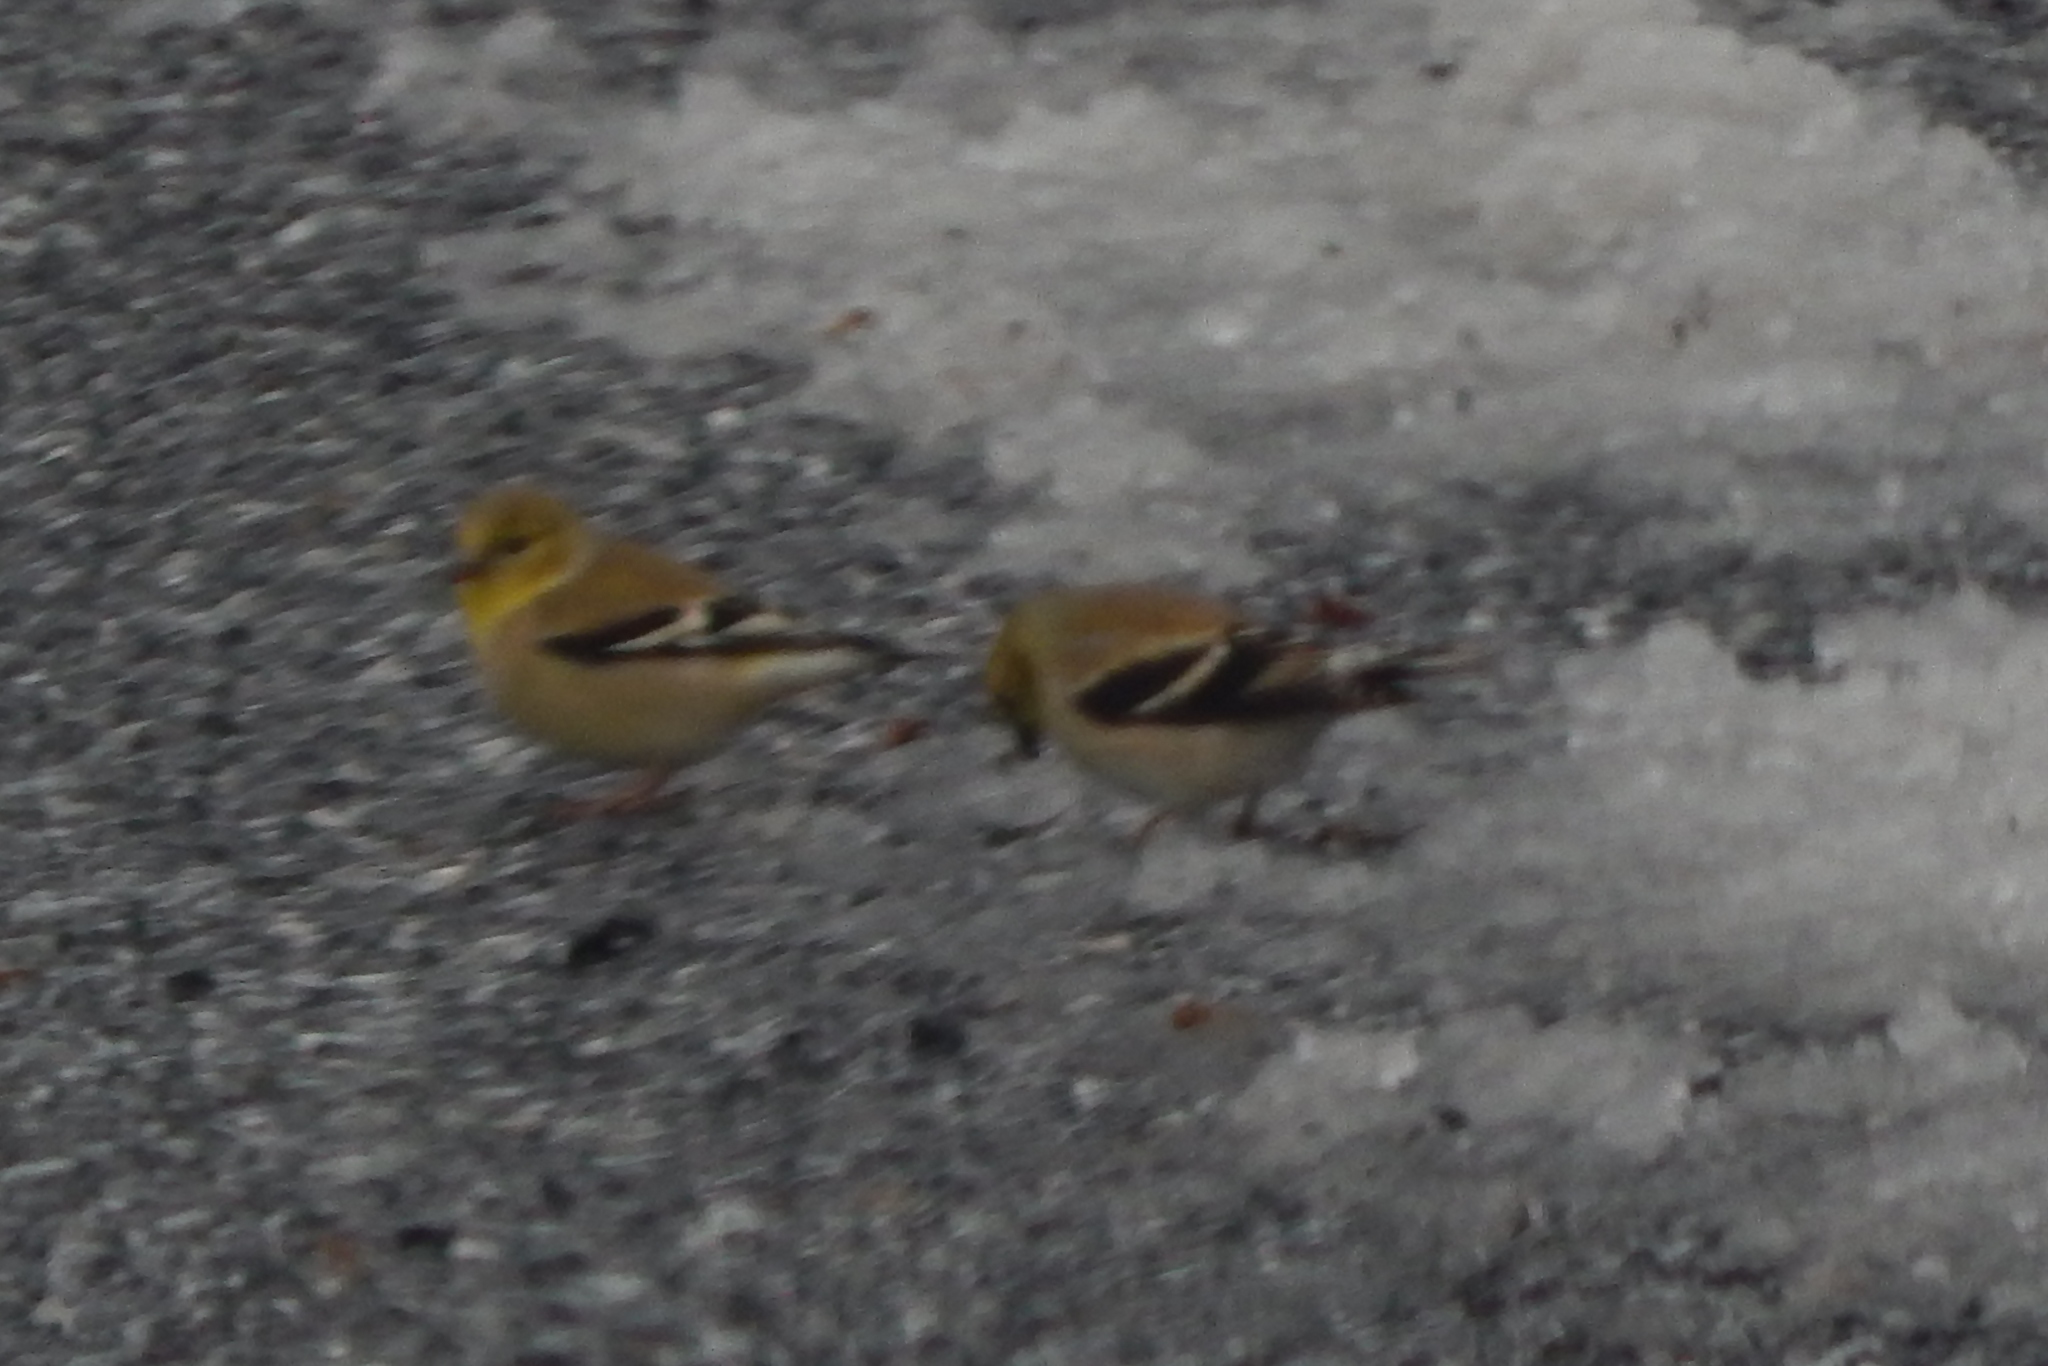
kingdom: Animalia
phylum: Chordata
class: Aves
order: Passeriformes
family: Fringillidae
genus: Spinus
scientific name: Spinus tristis
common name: American goldfinch
